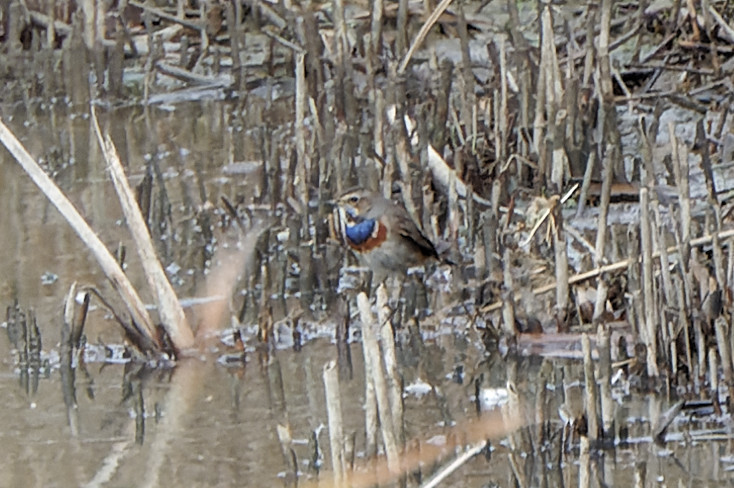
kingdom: Animalia
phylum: Chordata
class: Aves
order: Passeriformes
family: Muscicapidae
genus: Luscinia
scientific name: Luscinia svecica
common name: Bluethroat
